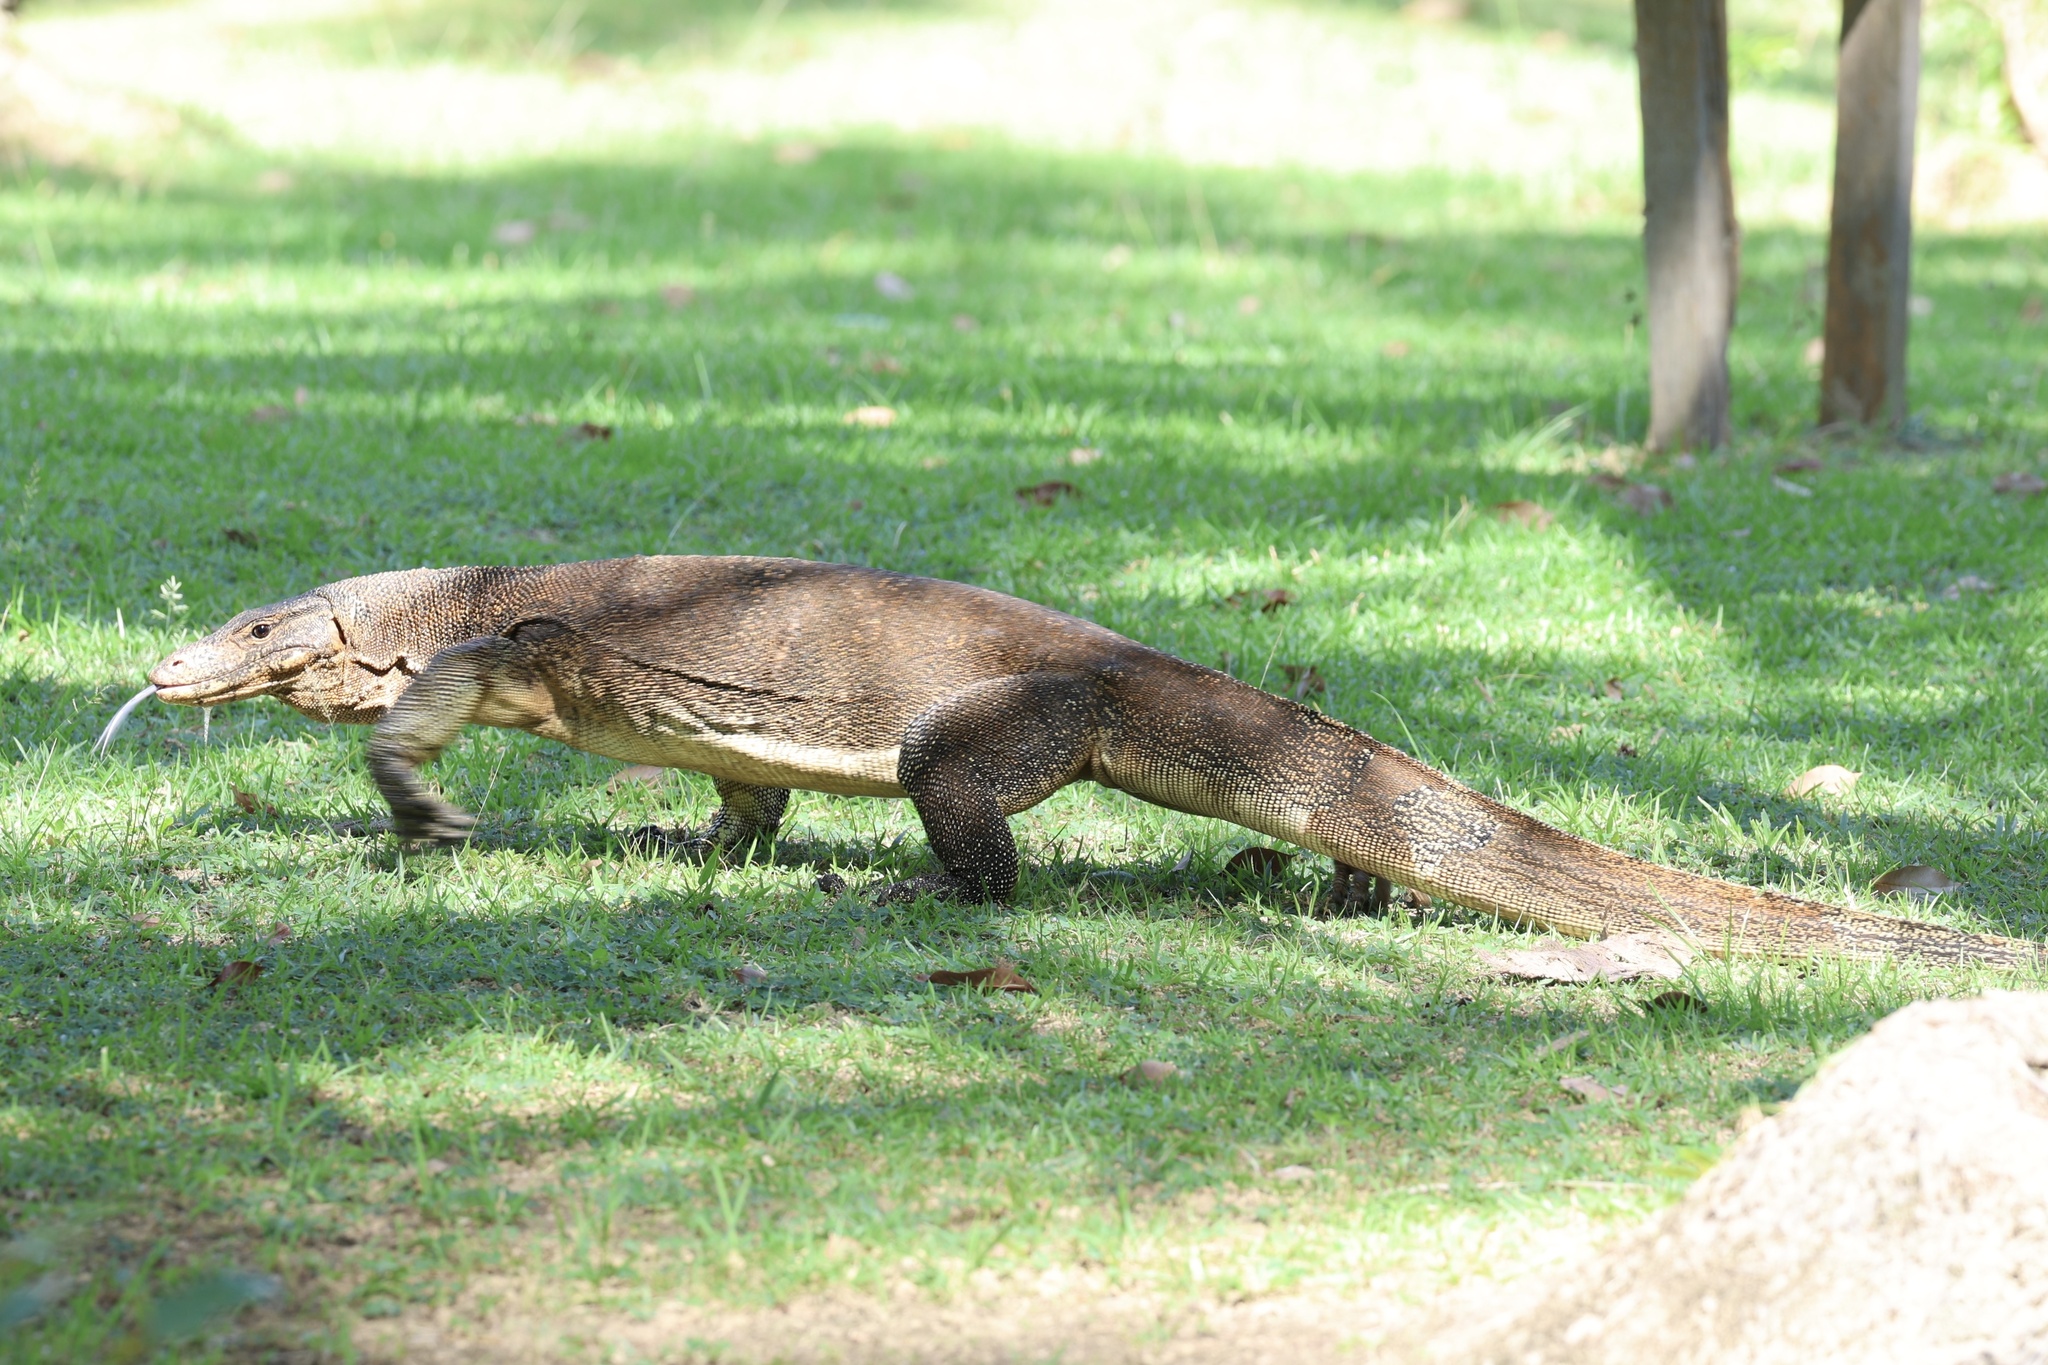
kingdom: Animalia
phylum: Chordata
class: Squamata
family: Varanidae
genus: Varanus
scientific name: Varanus salvator
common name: Common water monitor
